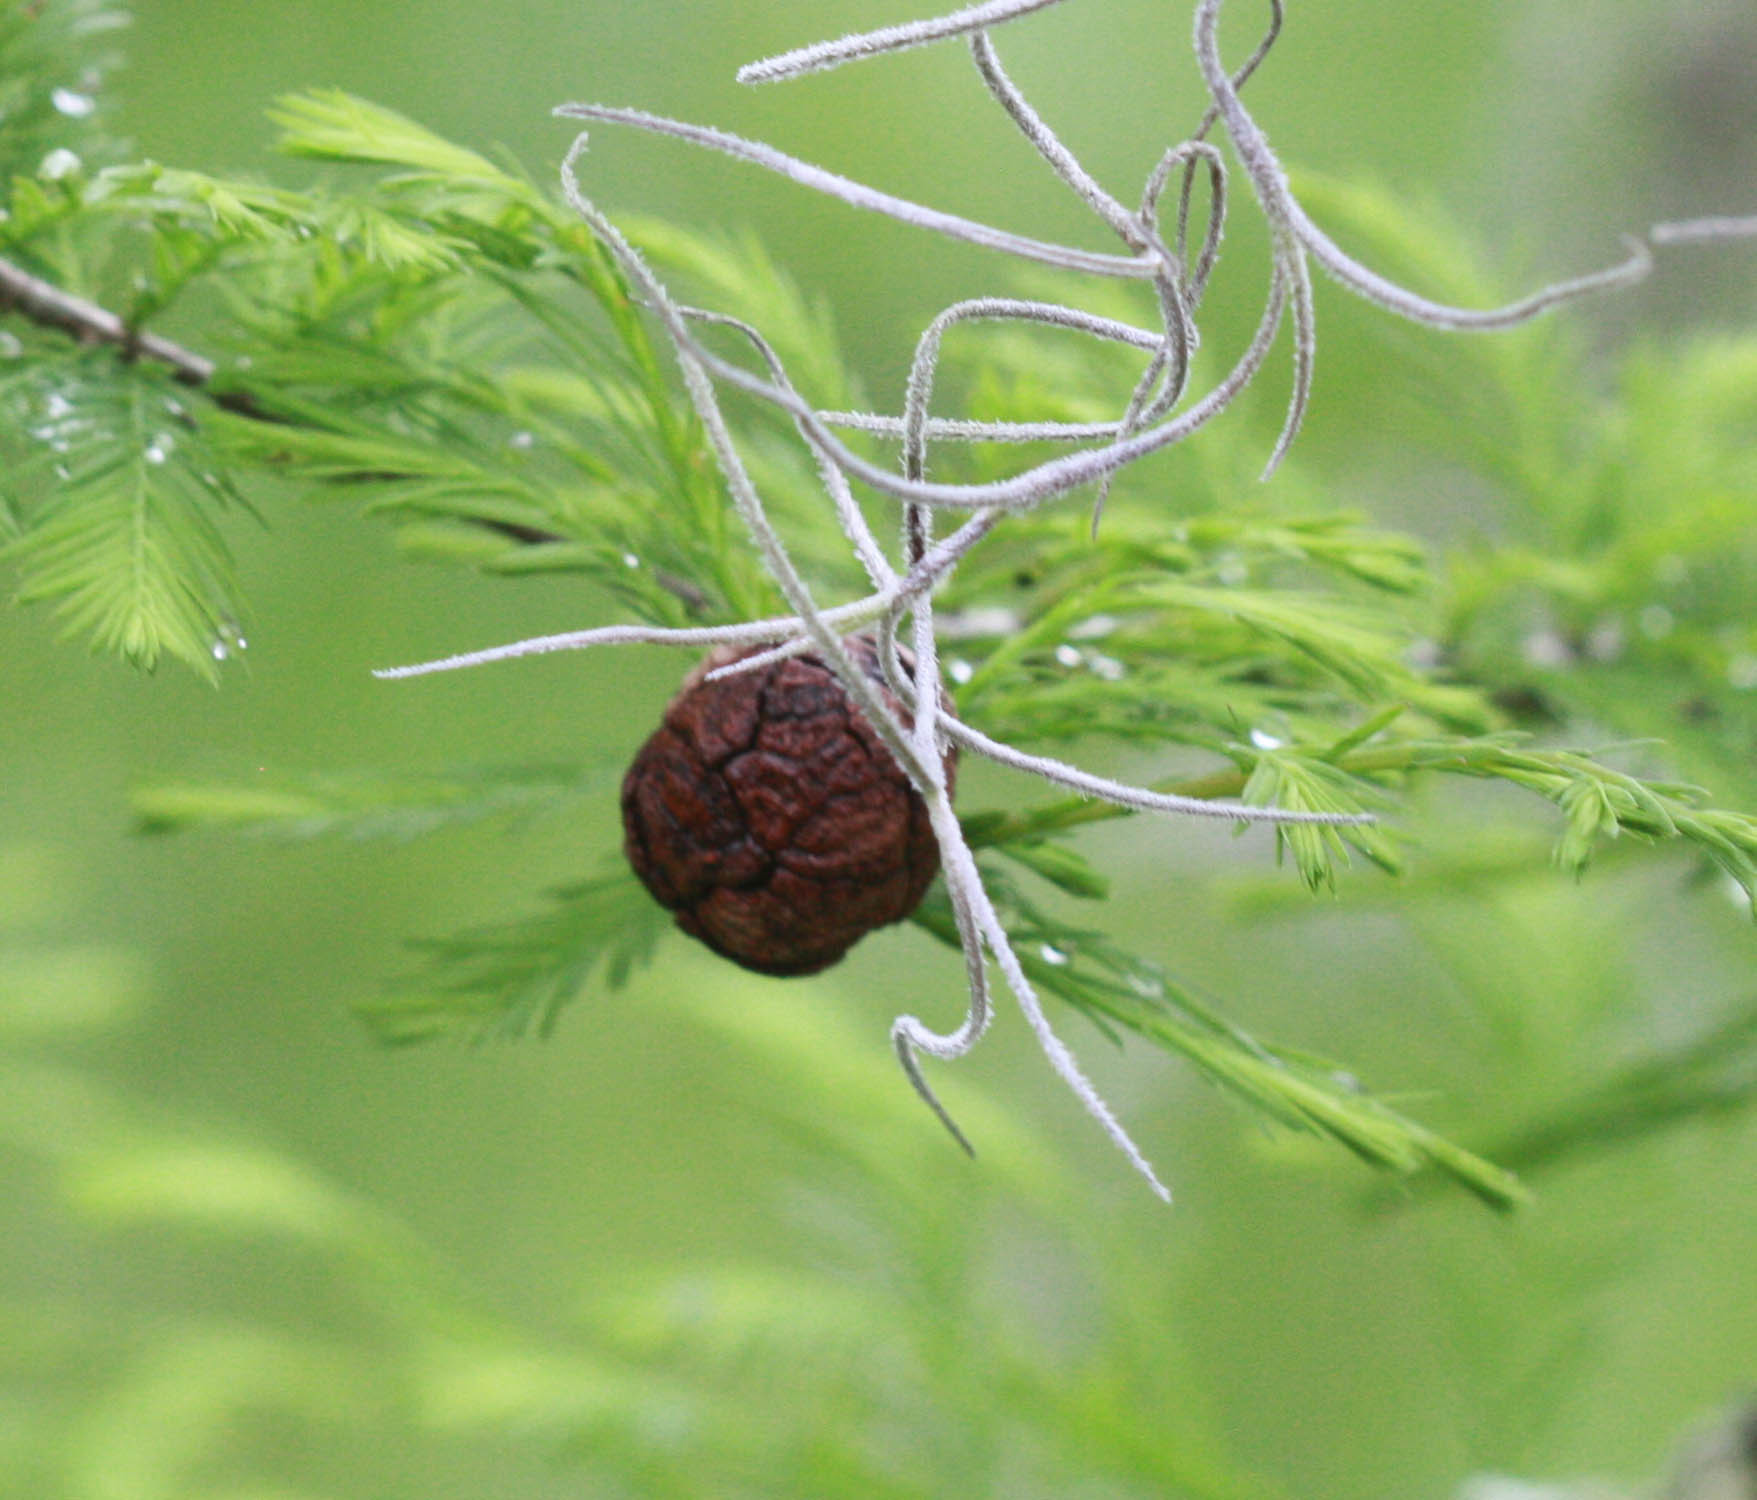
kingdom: Plantae
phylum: Tracheophyta
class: Pinopsida
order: Pinales
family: Cupressaceae
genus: Taxodium
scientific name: Taxodium distichum
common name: Bald cypress
